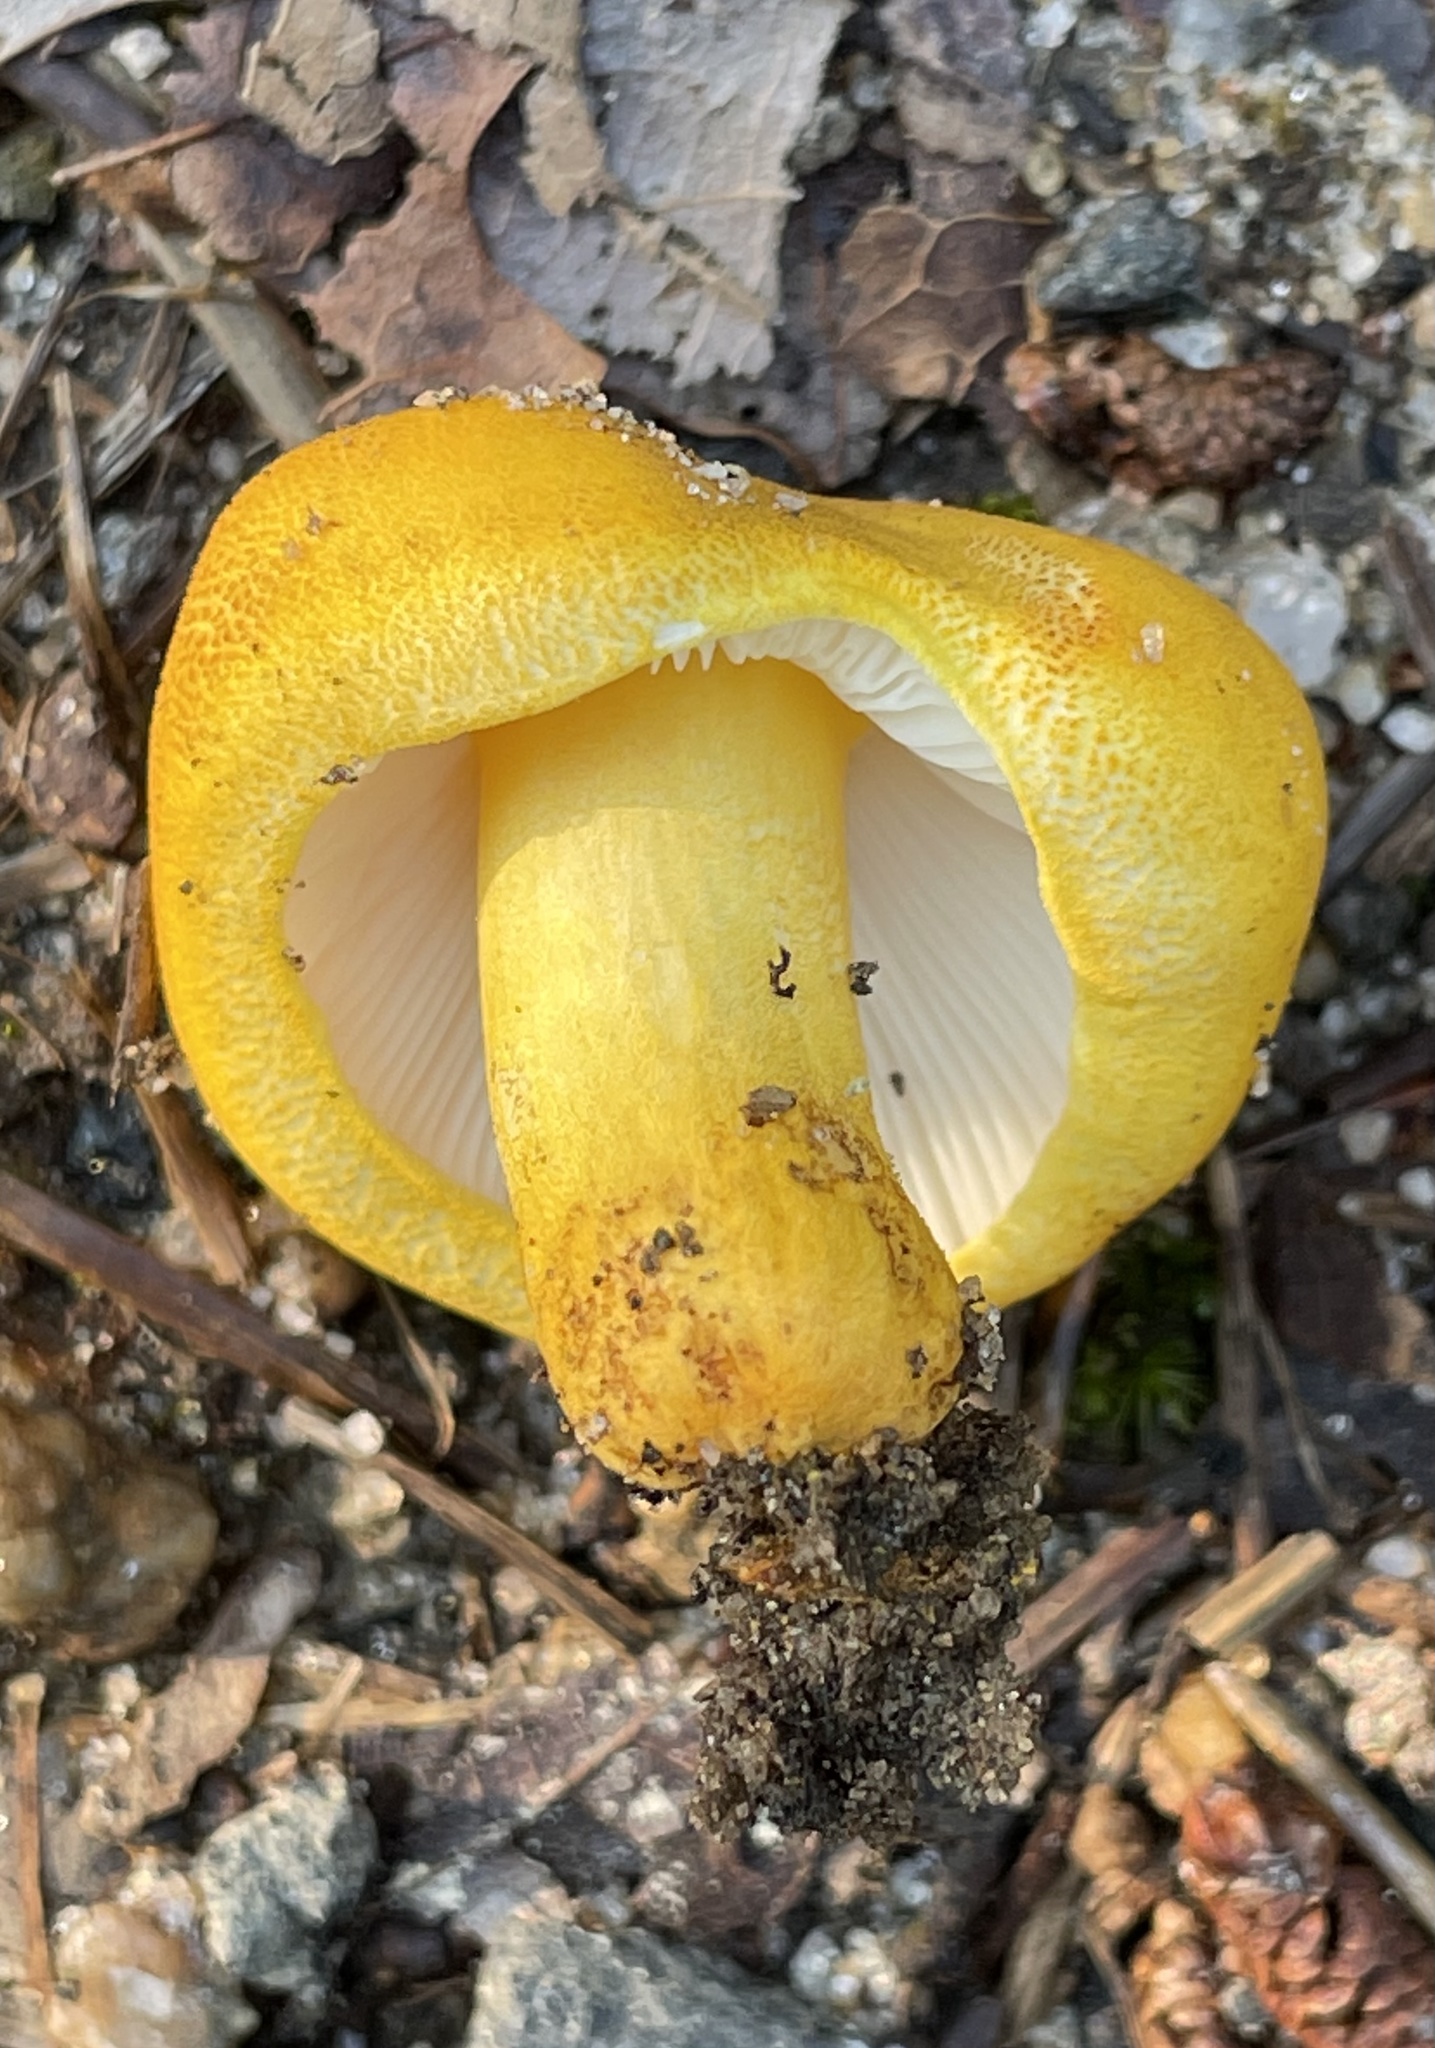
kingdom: Fungi
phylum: Basidiomycota
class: Agaricomycetes
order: Russulales
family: Russulaceae
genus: Russula
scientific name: Russula flavida
